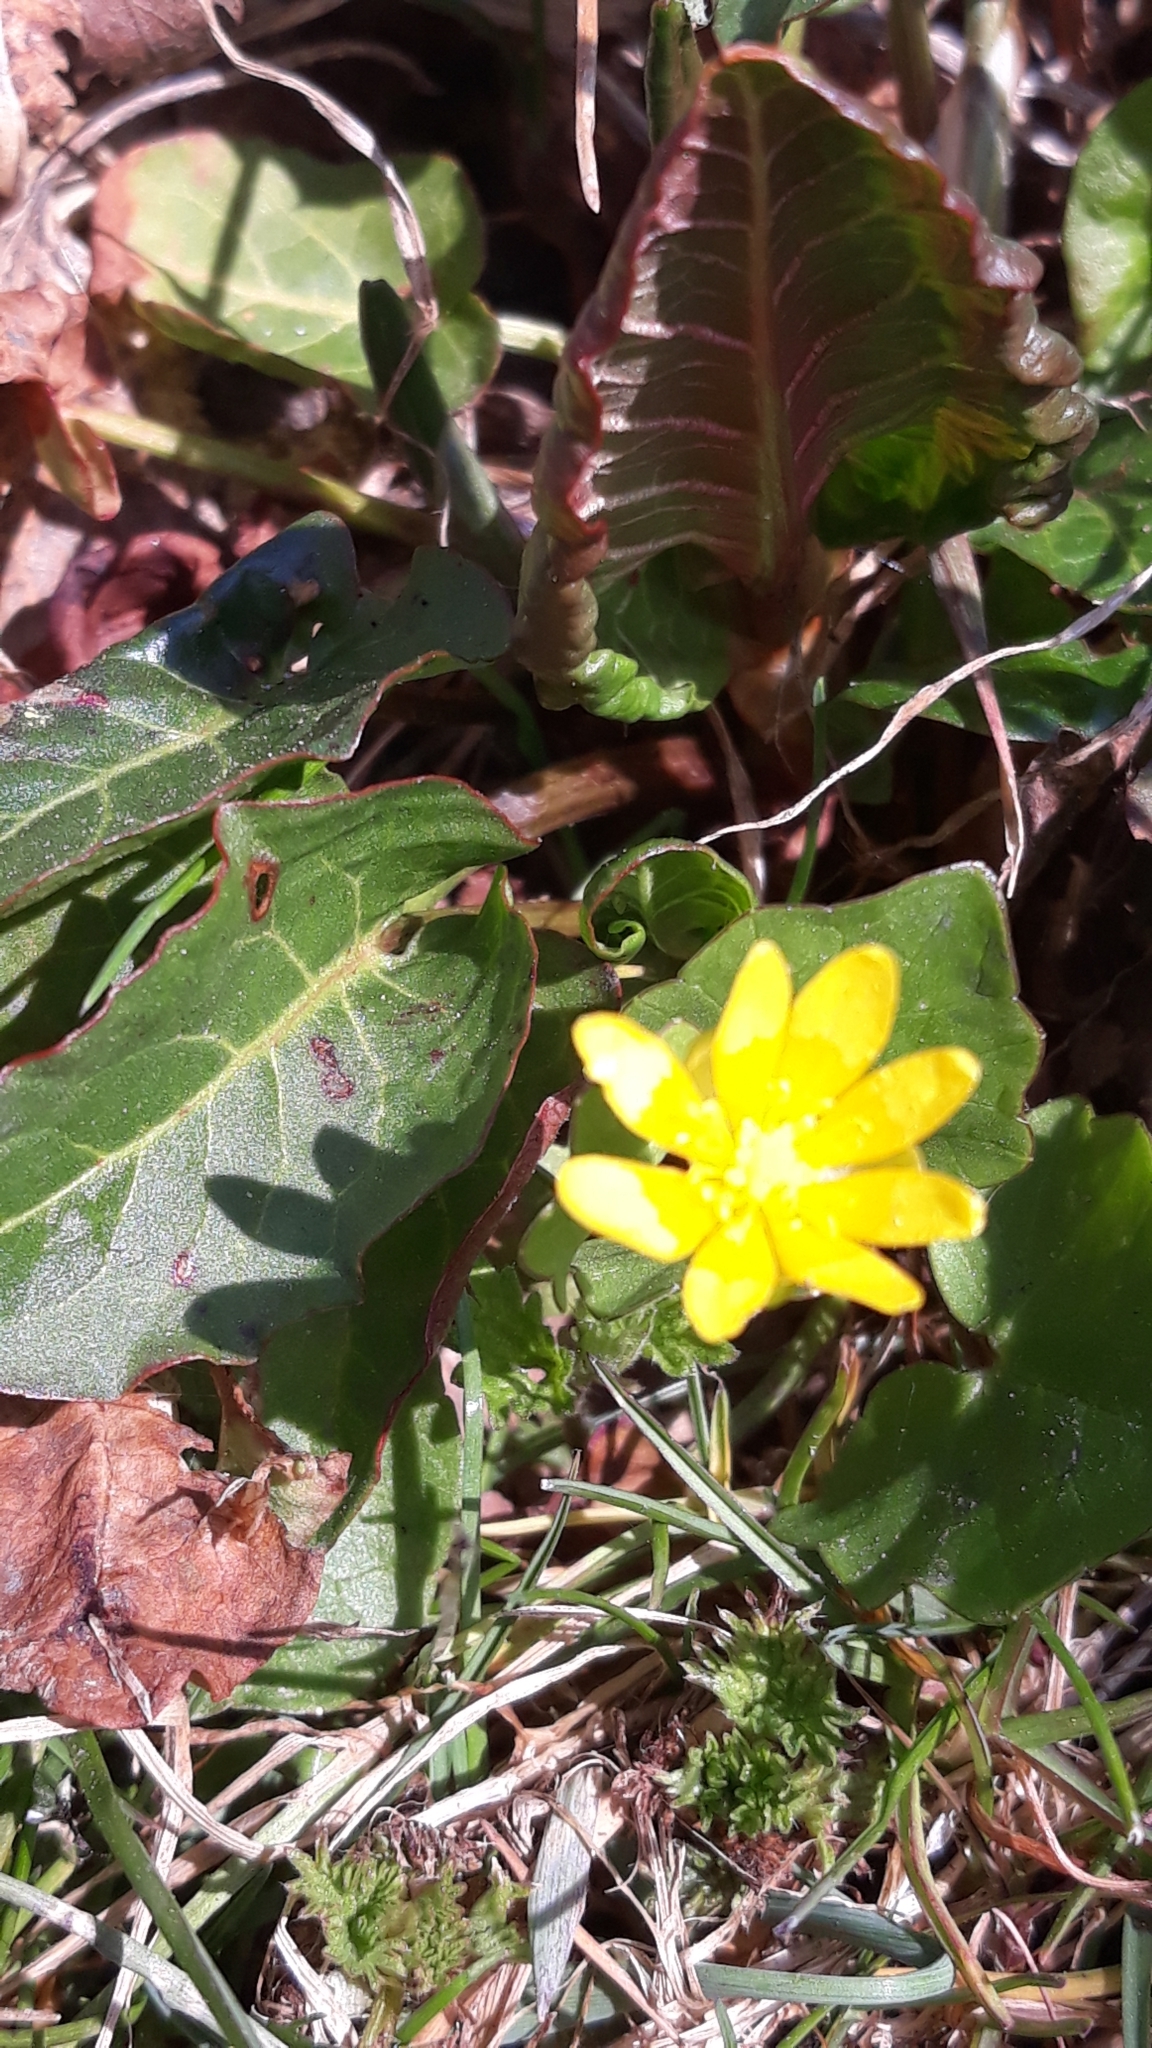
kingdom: Plantae
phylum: Tracheophyta
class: Magnoliopsida
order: Ranunculales
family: Ranunculaceae
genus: Ficaria
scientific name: Ficaria verna
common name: Lesser celandine
